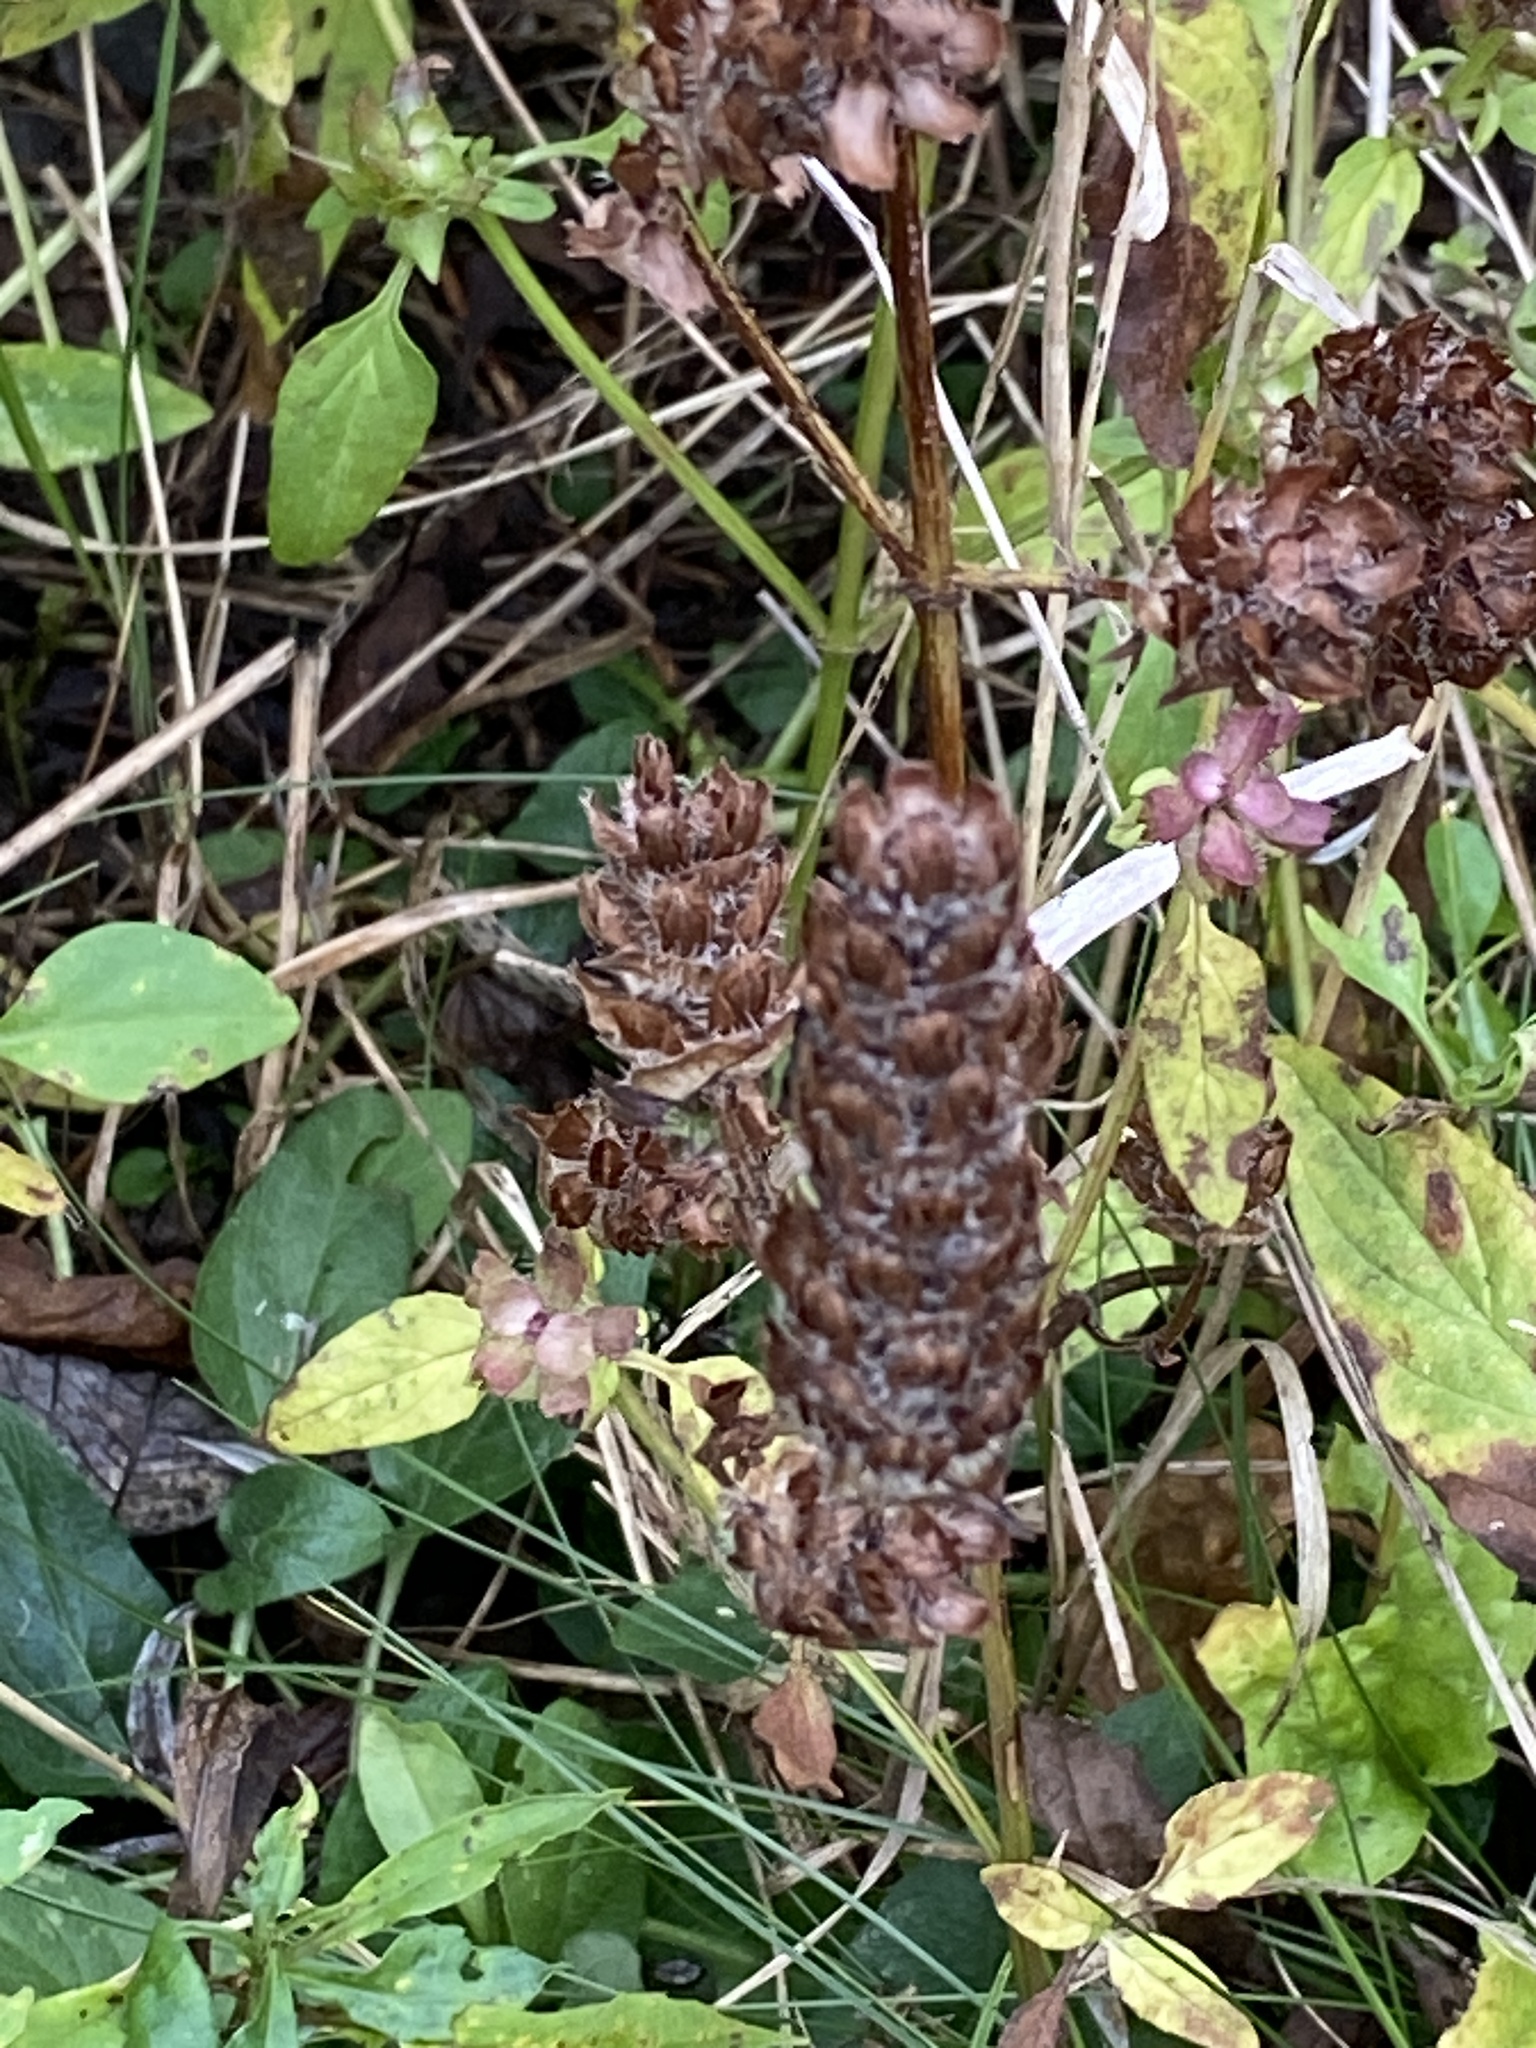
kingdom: Plantae
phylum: Tracheophyta
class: Magnoliopsida
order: Lamiales
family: Lamiaceae
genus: Prunella
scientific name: Prunella vulgaris
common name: Heal-all
